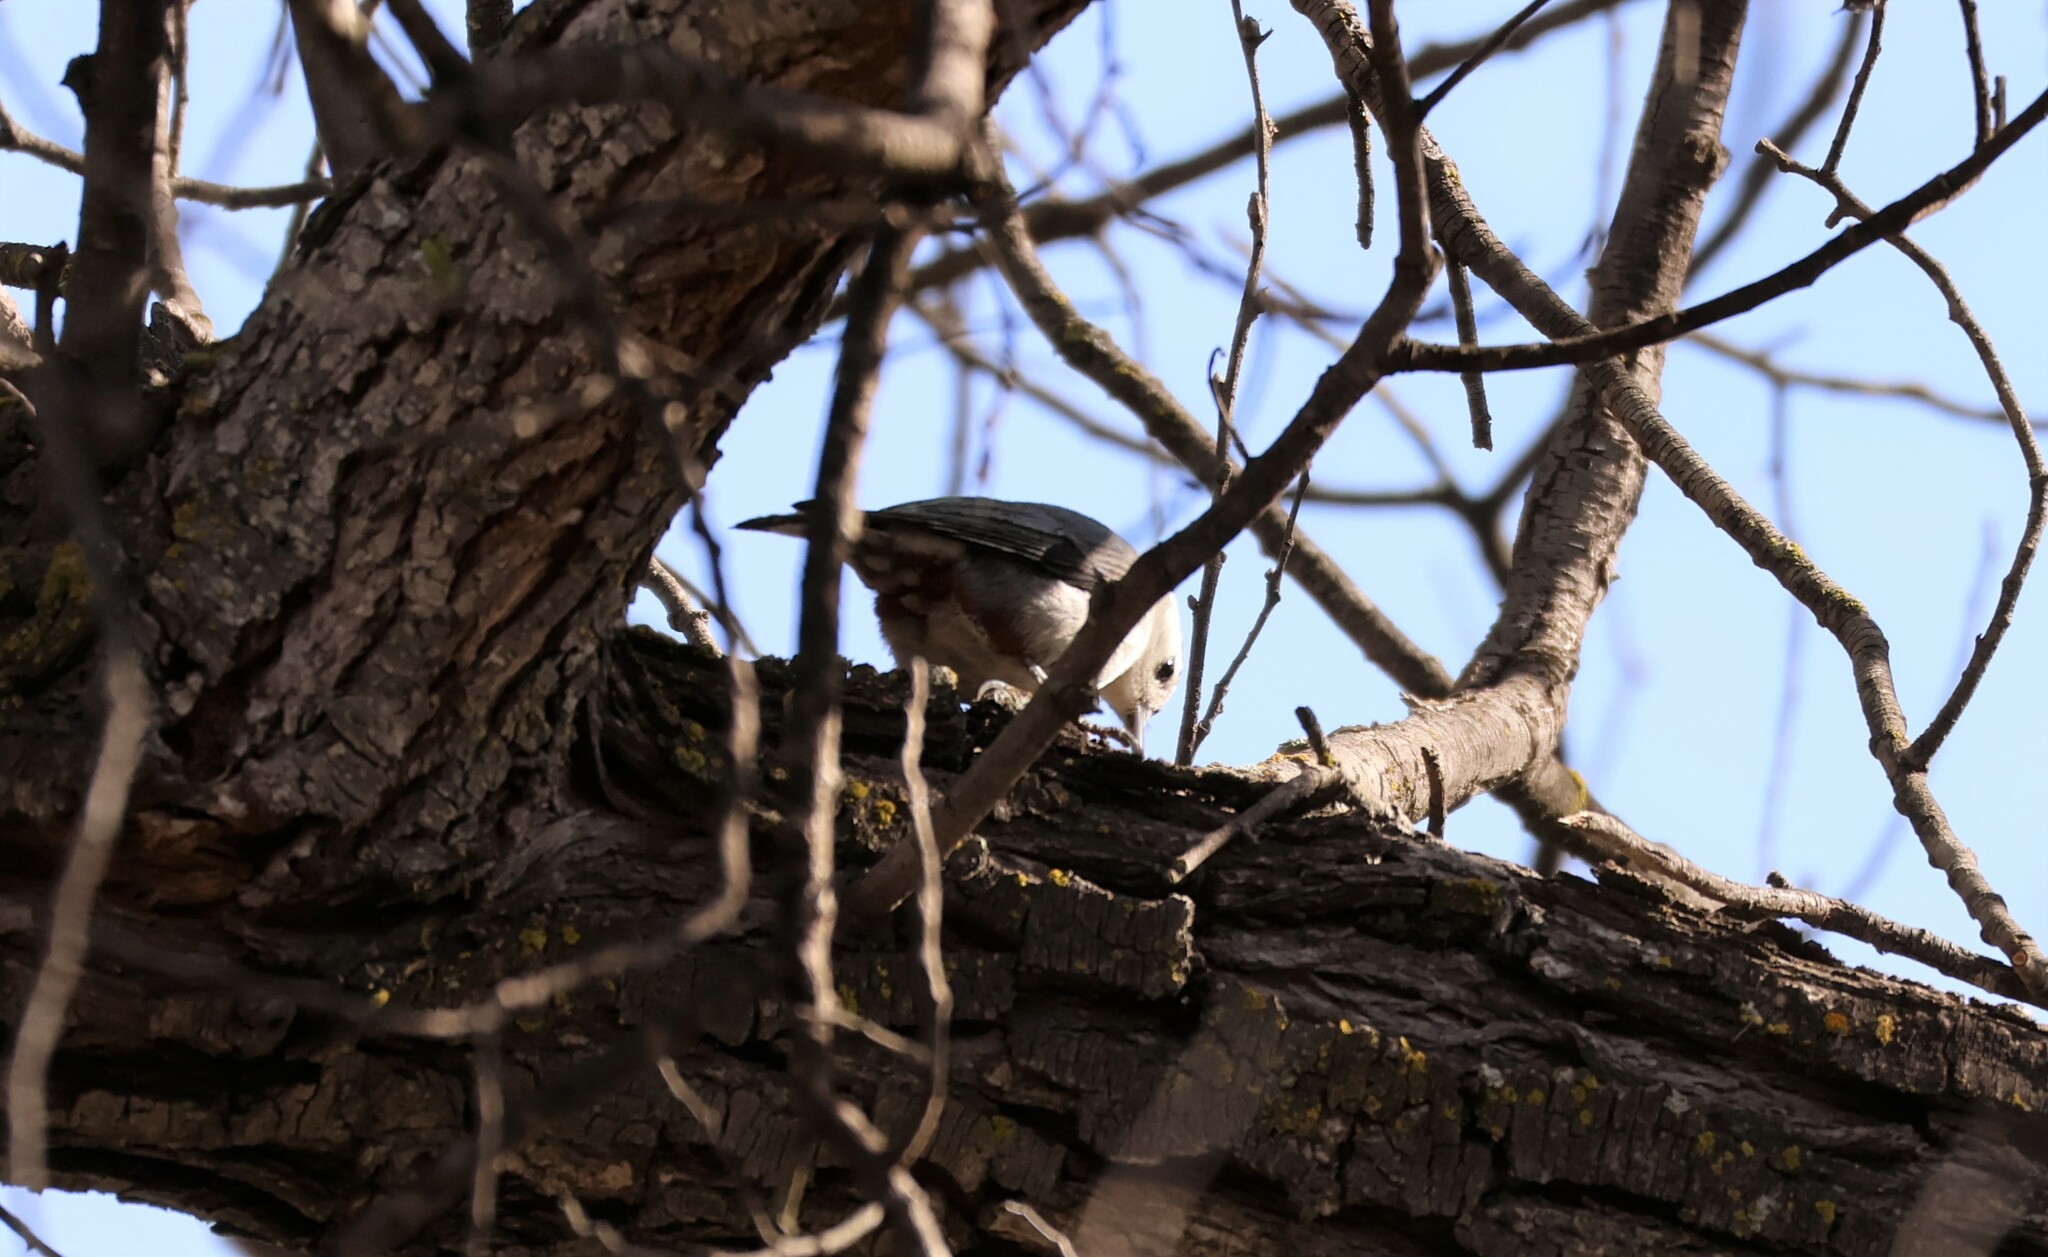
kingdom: Animalia
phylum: Chordata
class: Aves
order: Passeriformes
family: Sittidae
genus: Sitta
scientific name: Sitta carolinensis
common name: White-breasted nuthatch
